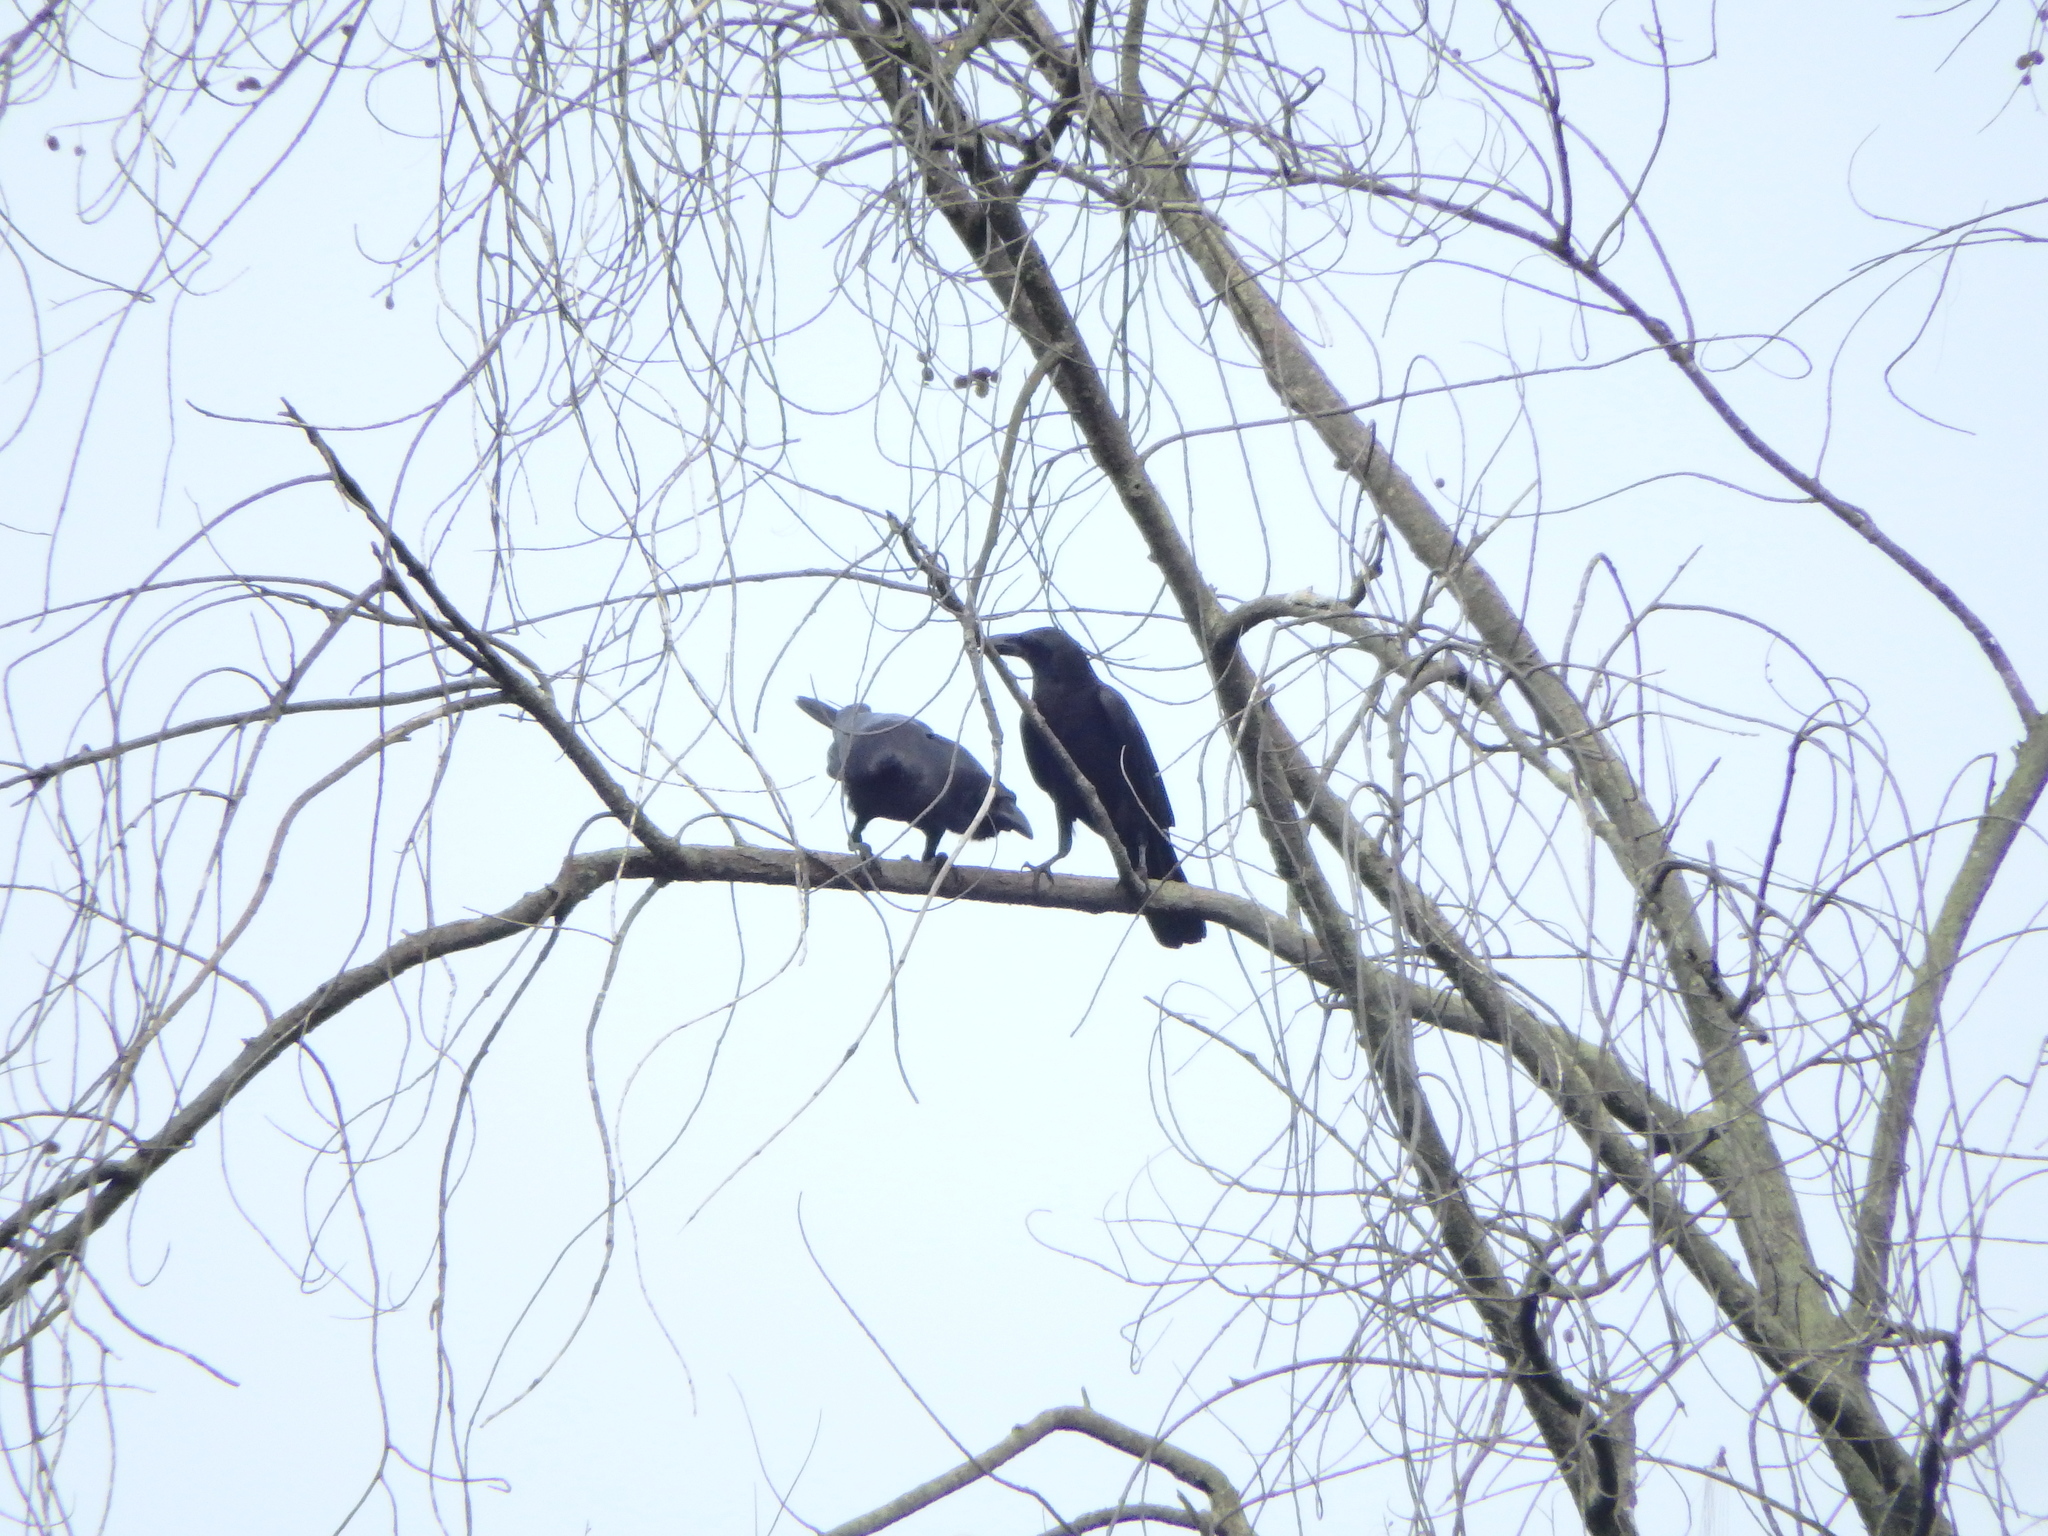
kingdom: Animalia
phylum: Chordata
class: Aves
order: Passeriformes
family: Corvidae
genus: Corvus
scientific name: Corvus macrorhynchos
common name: Large-billed crow
